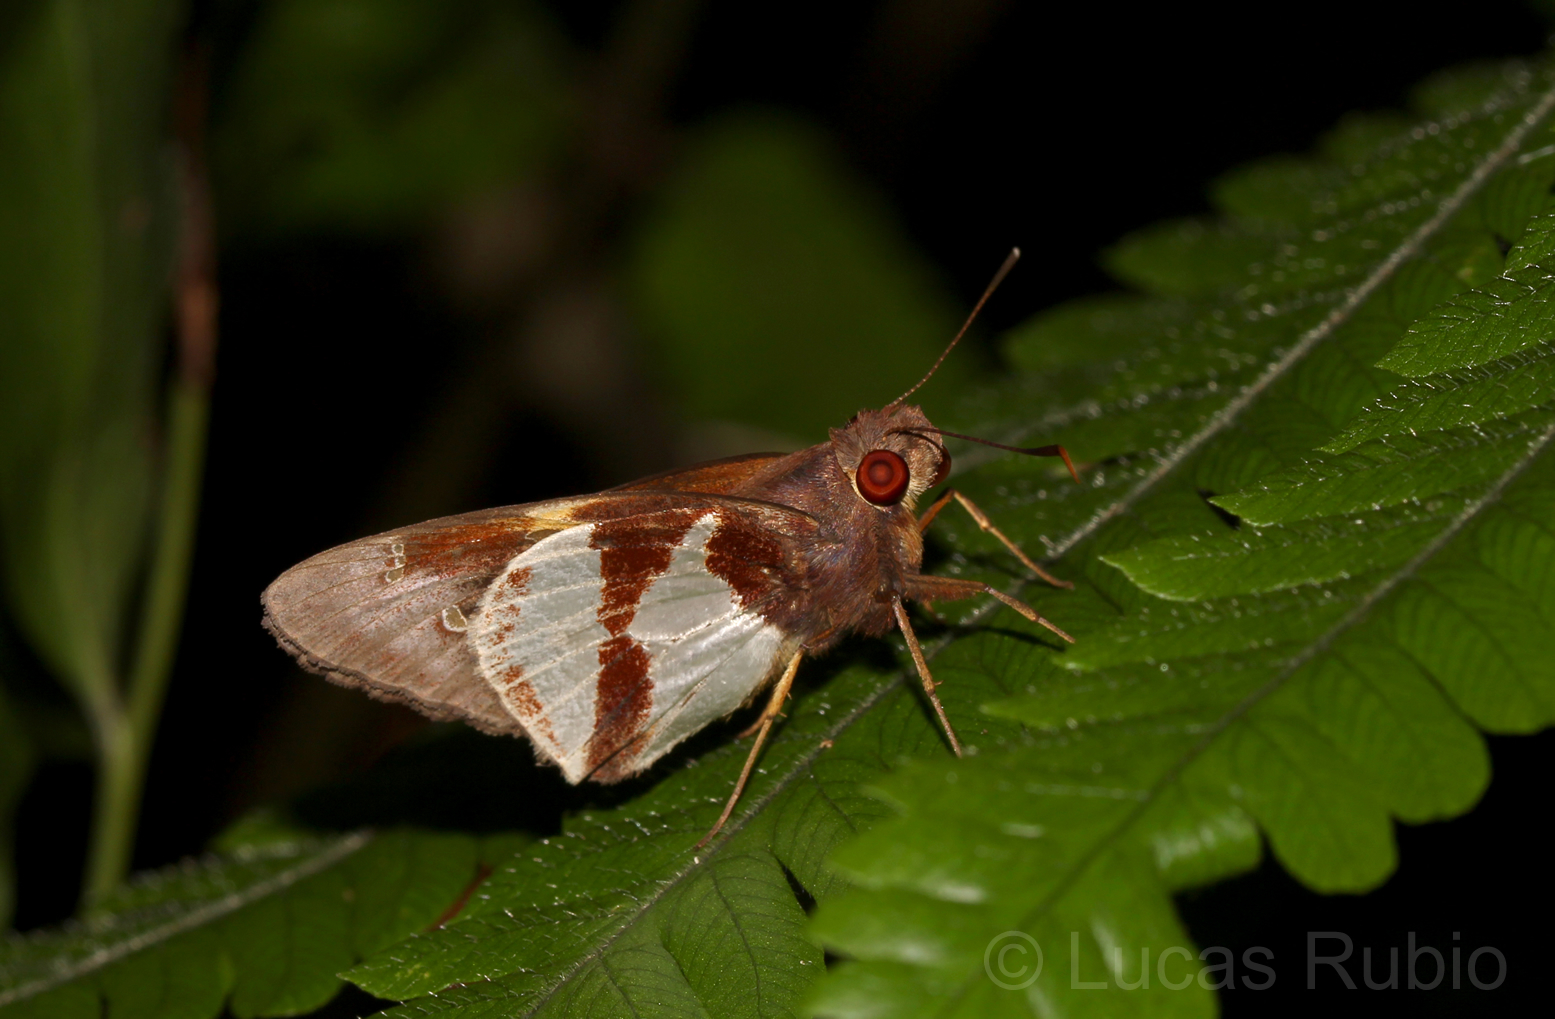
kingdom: Animalia
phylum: Arthropoda
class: Insecta
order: Lepidoptera
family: Hesperiidae
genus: Lycas
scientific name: Lycas
